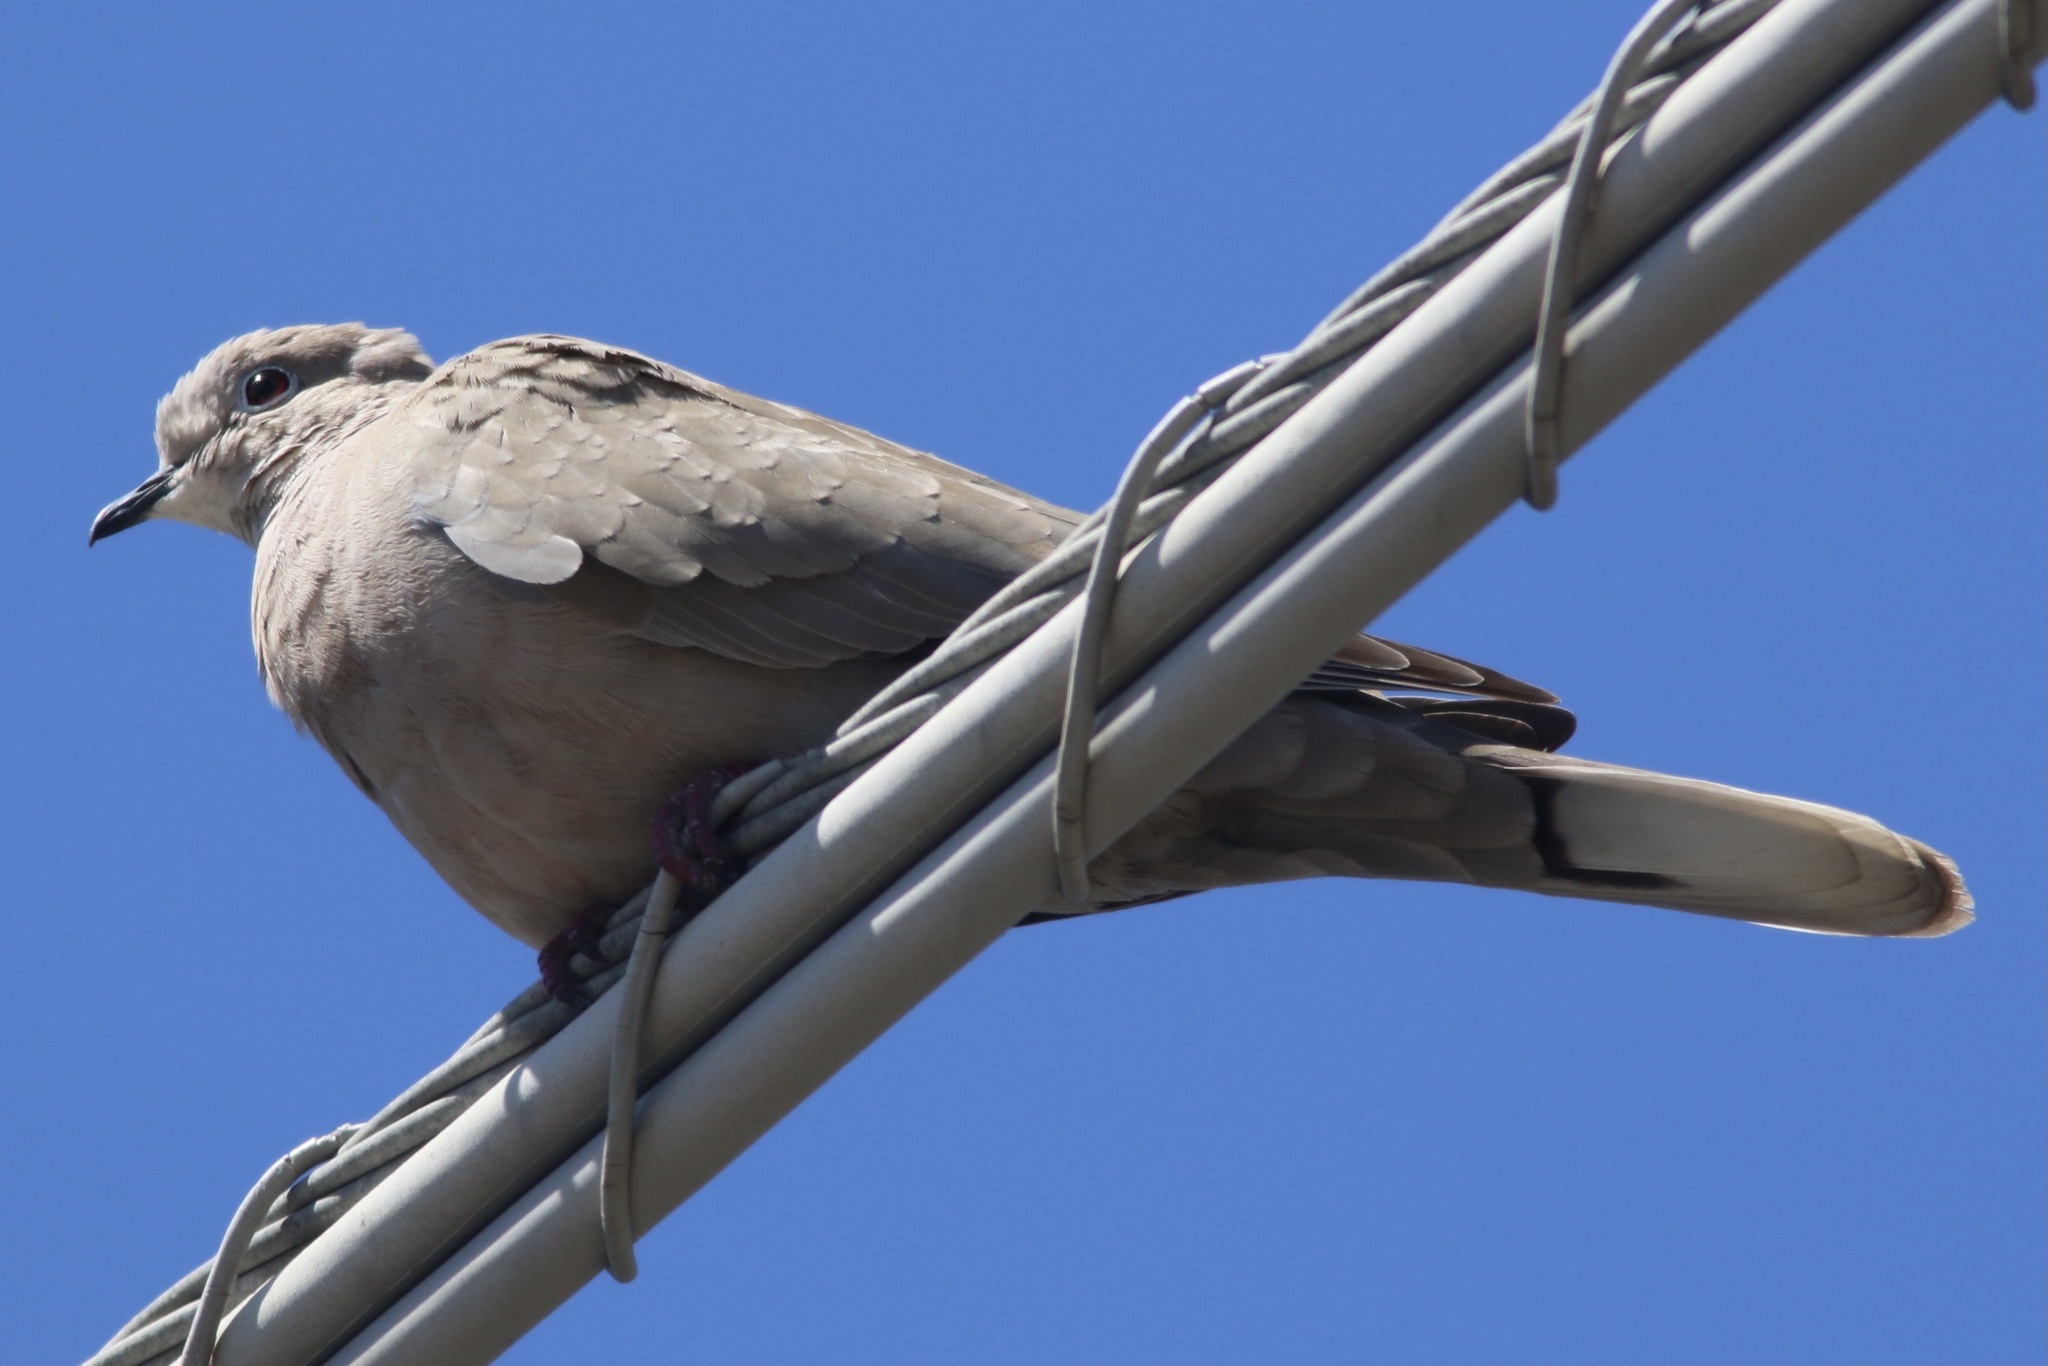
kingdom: Animalia
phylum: Chordata
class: Aves
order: Columbiformes
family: Columbidae
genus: Streptopelia
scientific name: Streptopelia decaocto
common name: Eurasian collared dove
